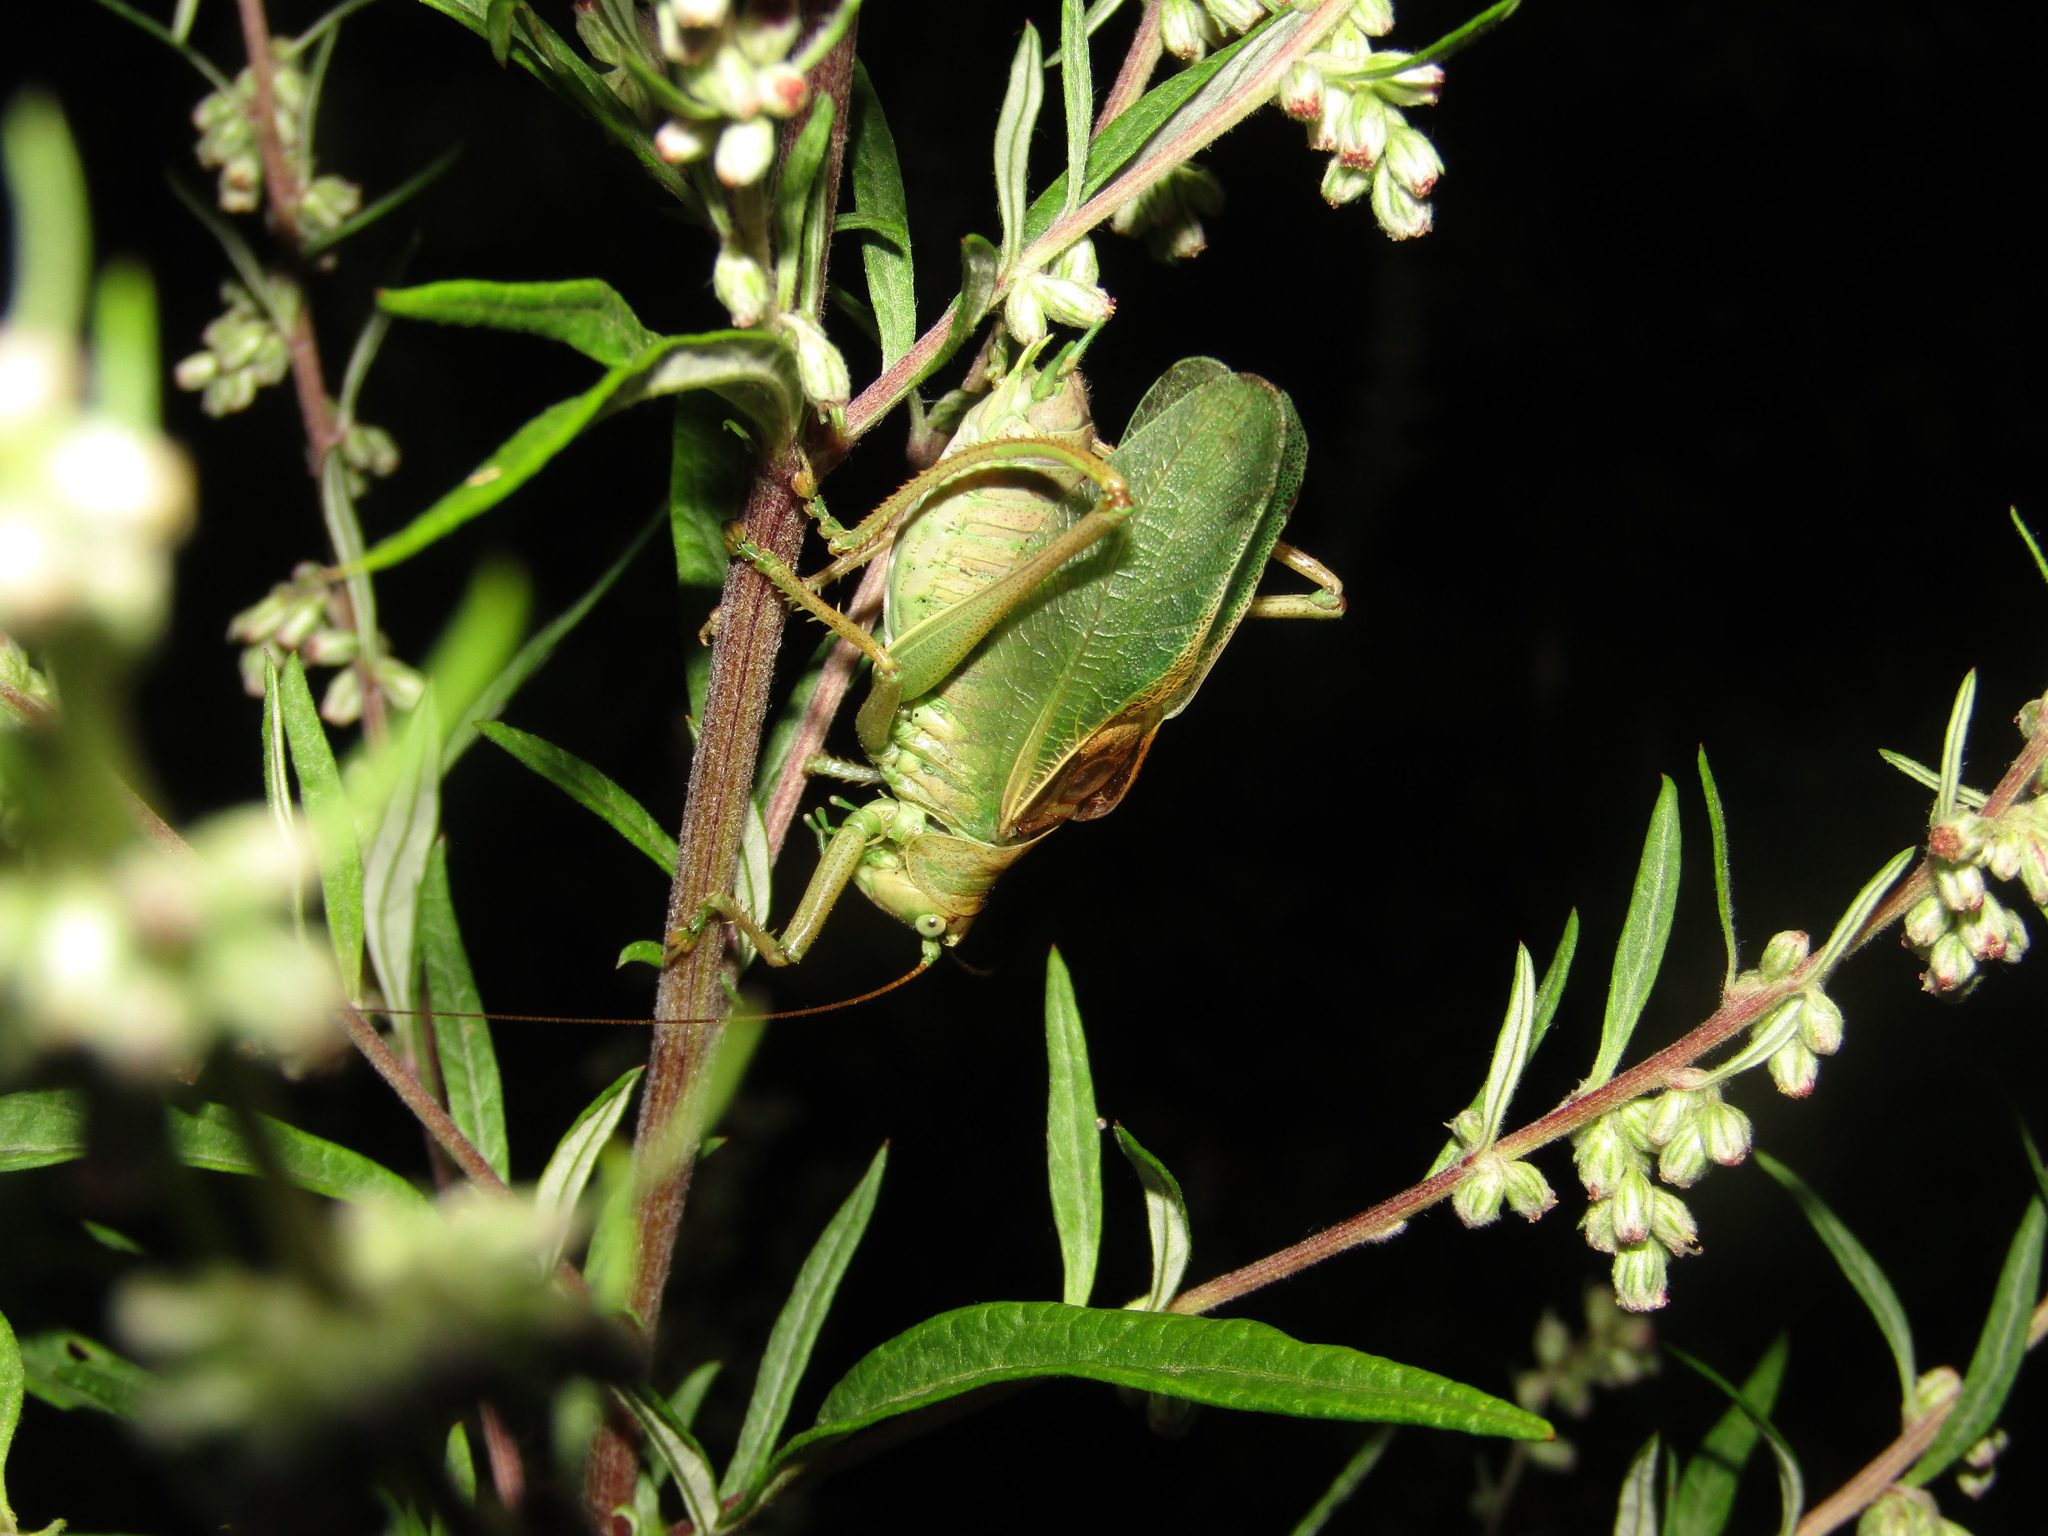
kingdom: Animalia
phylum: Arthropoda
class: Insecta
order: Orthoptera
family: Tettigoniidae
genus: Tettigonia
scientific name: Tettigonia cantans
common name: Upland green bush-cricket
